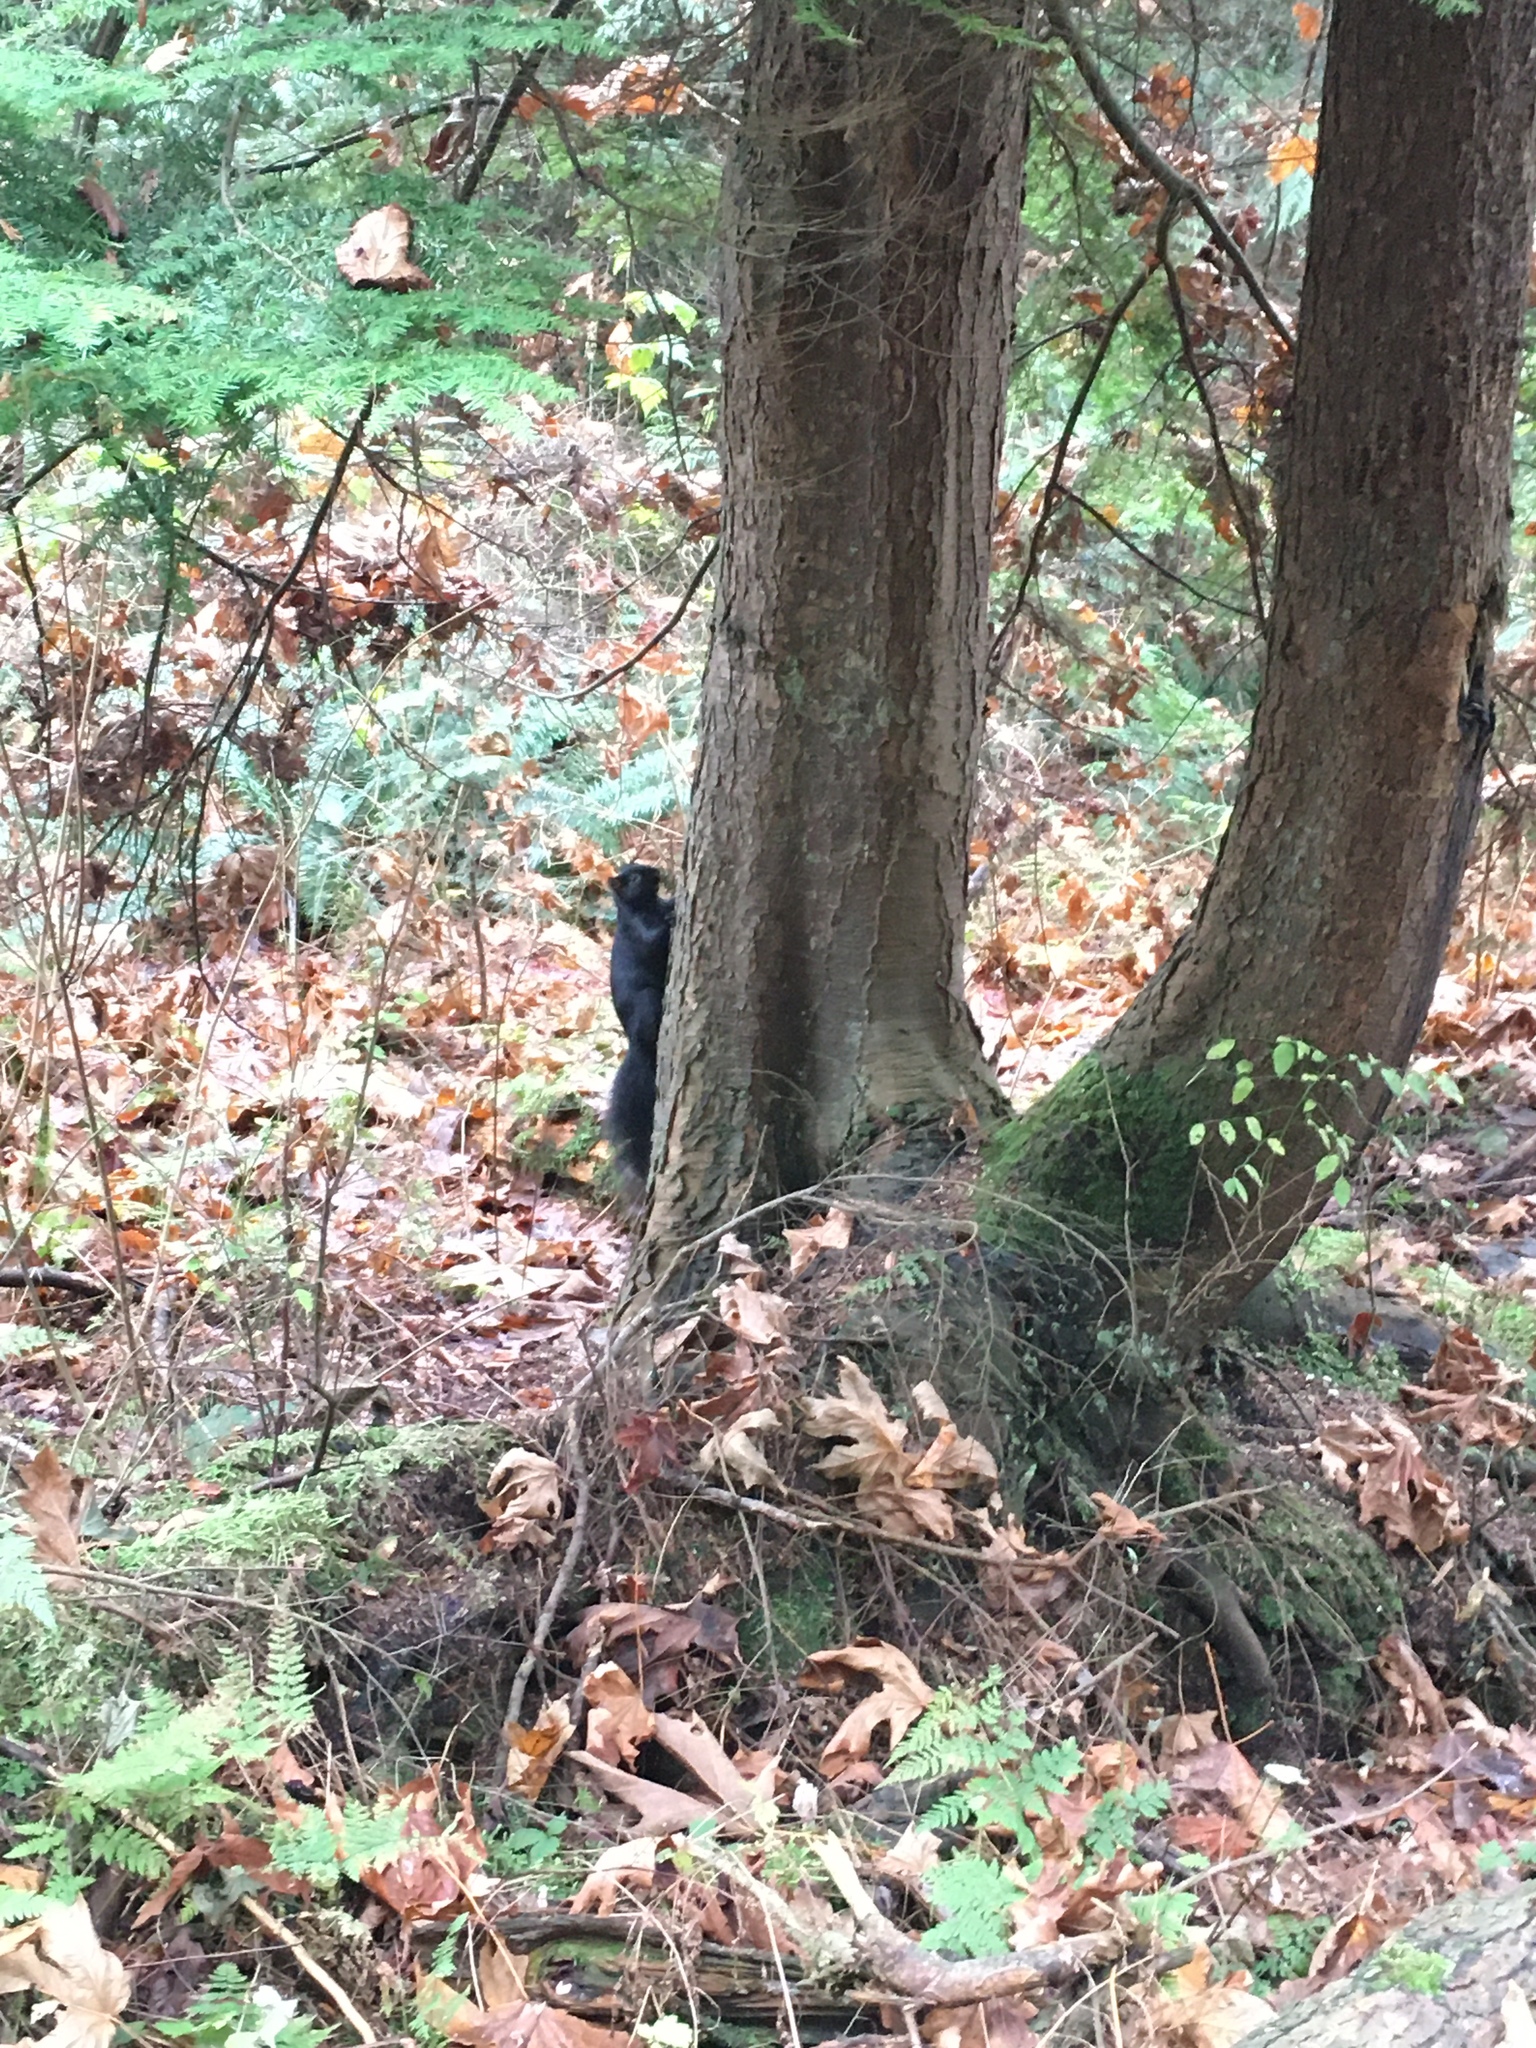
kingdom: Animalia
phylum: Chordata
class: Mammalia
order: Rodentia
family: Sciuridae
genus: Sciurus
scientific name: Sciurus carolinensis
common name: Eastern gray squirrel
